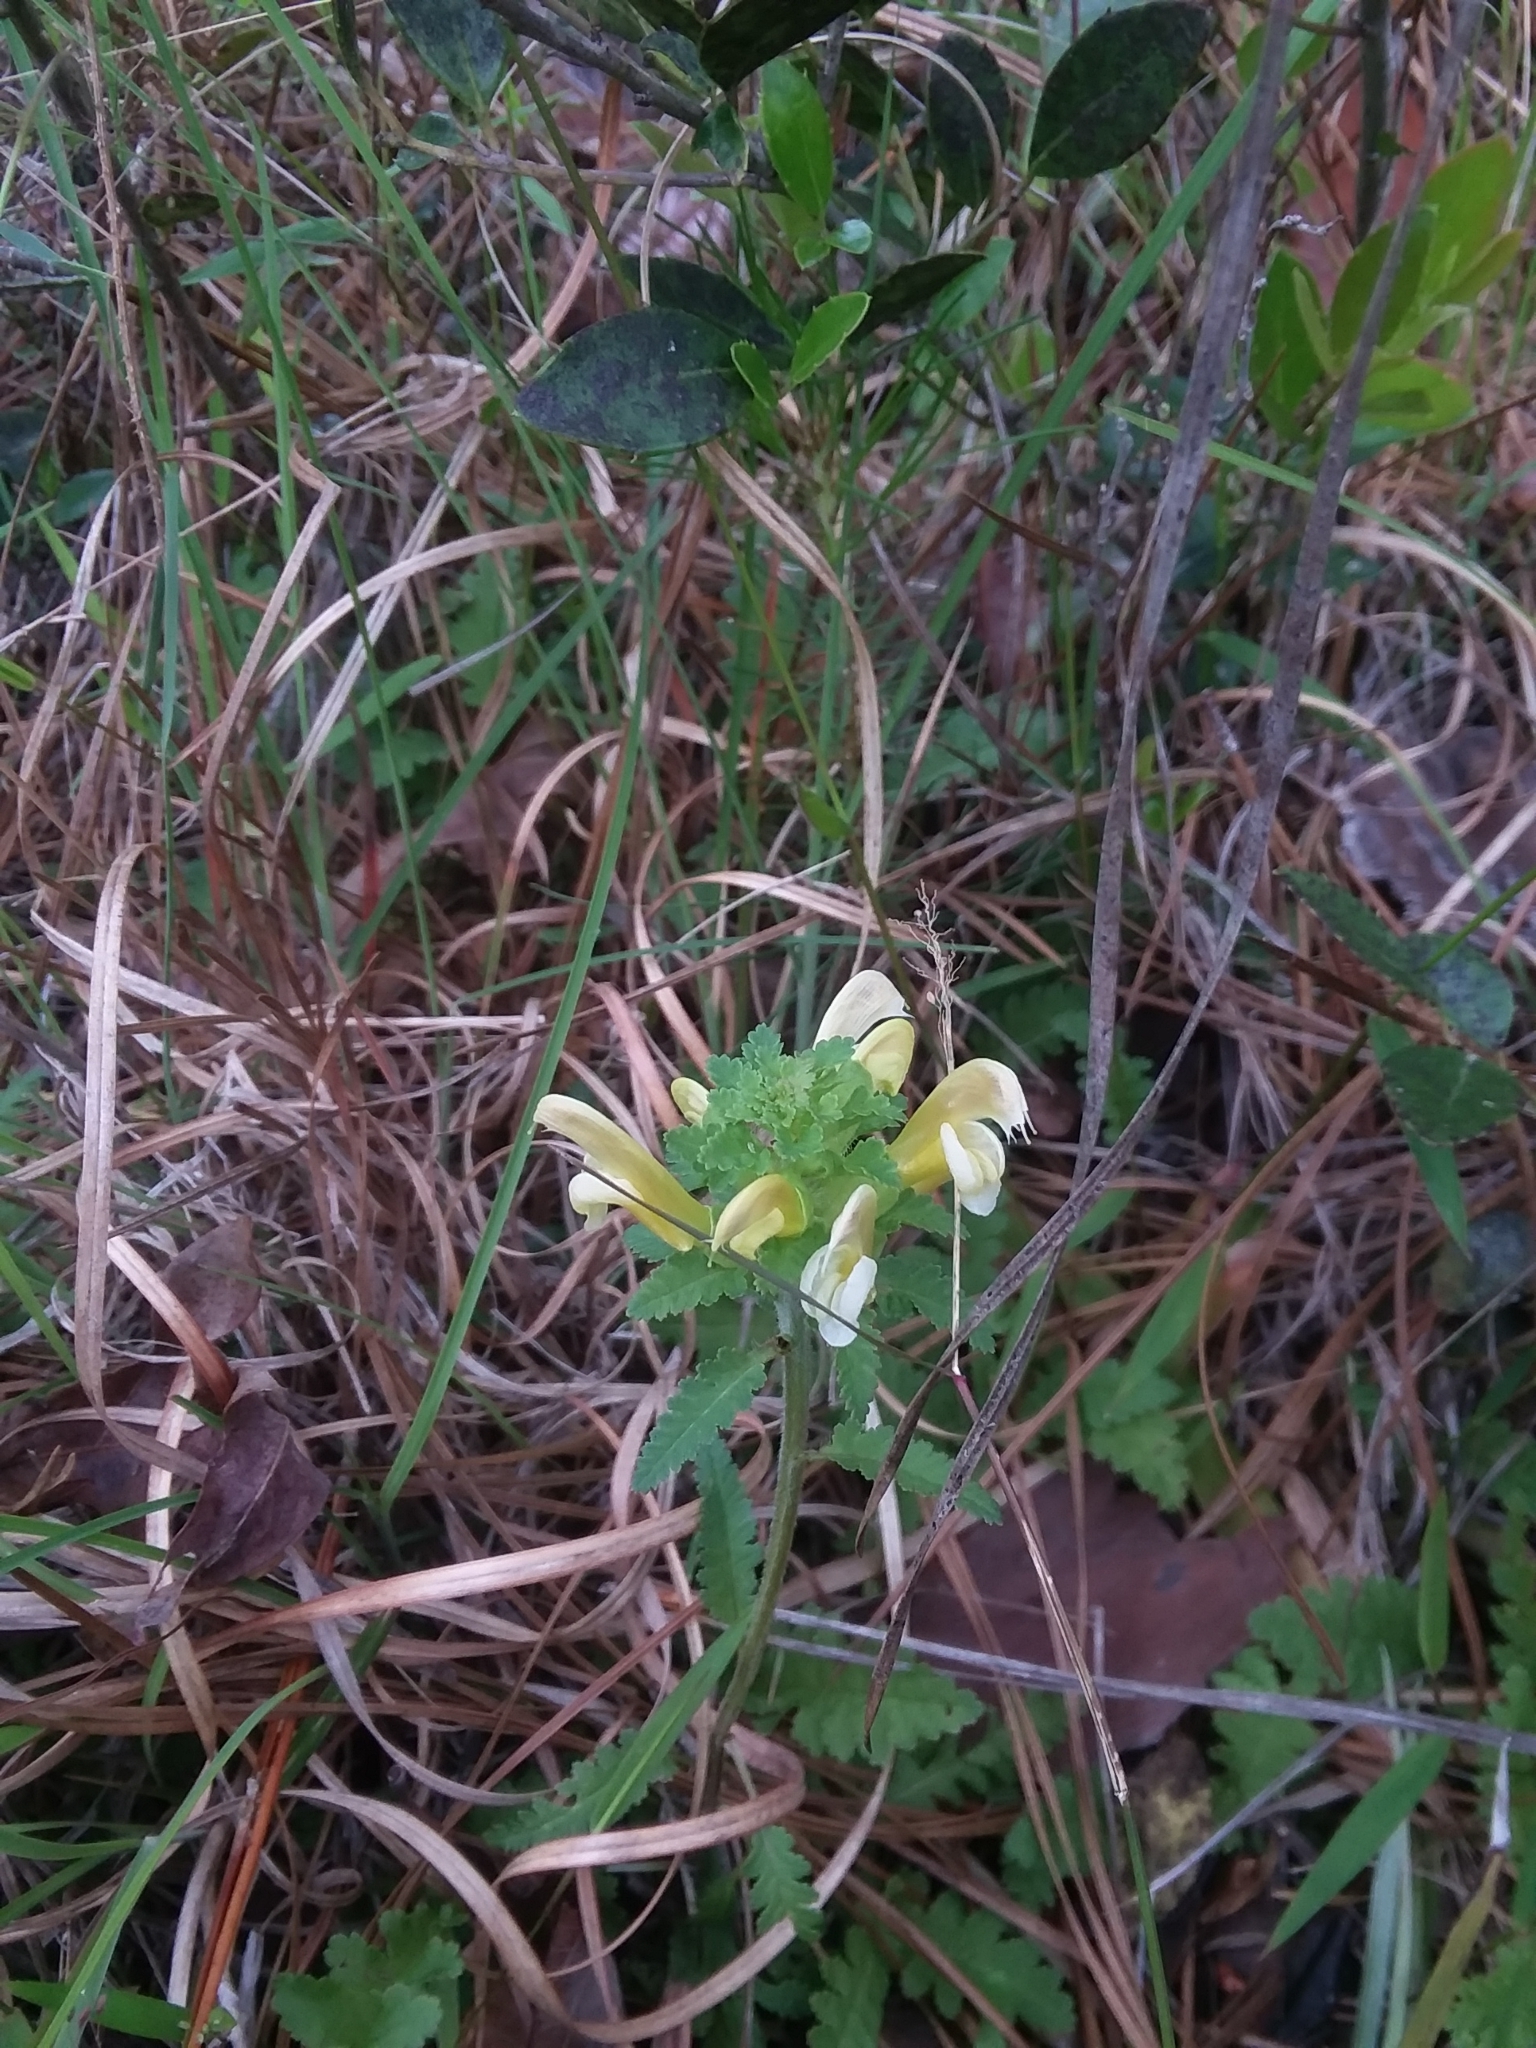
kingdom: Plantae
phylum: Tracheophyta
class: Magnoliopsida
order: Lamiales
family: Orobanchaceae
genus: Pedicularis
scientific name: Pedicularis canadensis
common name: Early lousewort
